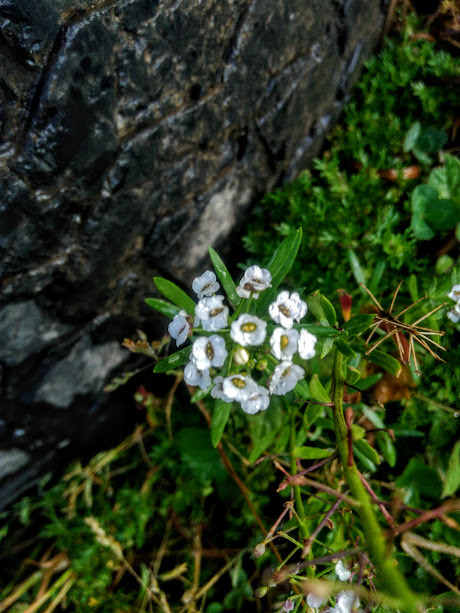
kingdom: Plantae
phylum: Tracheophyta
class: Magnoliopsida
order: Brassicales
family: Brassicaceae
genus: Lobularia
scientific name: Lobularia maritima
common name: Sweet alison
